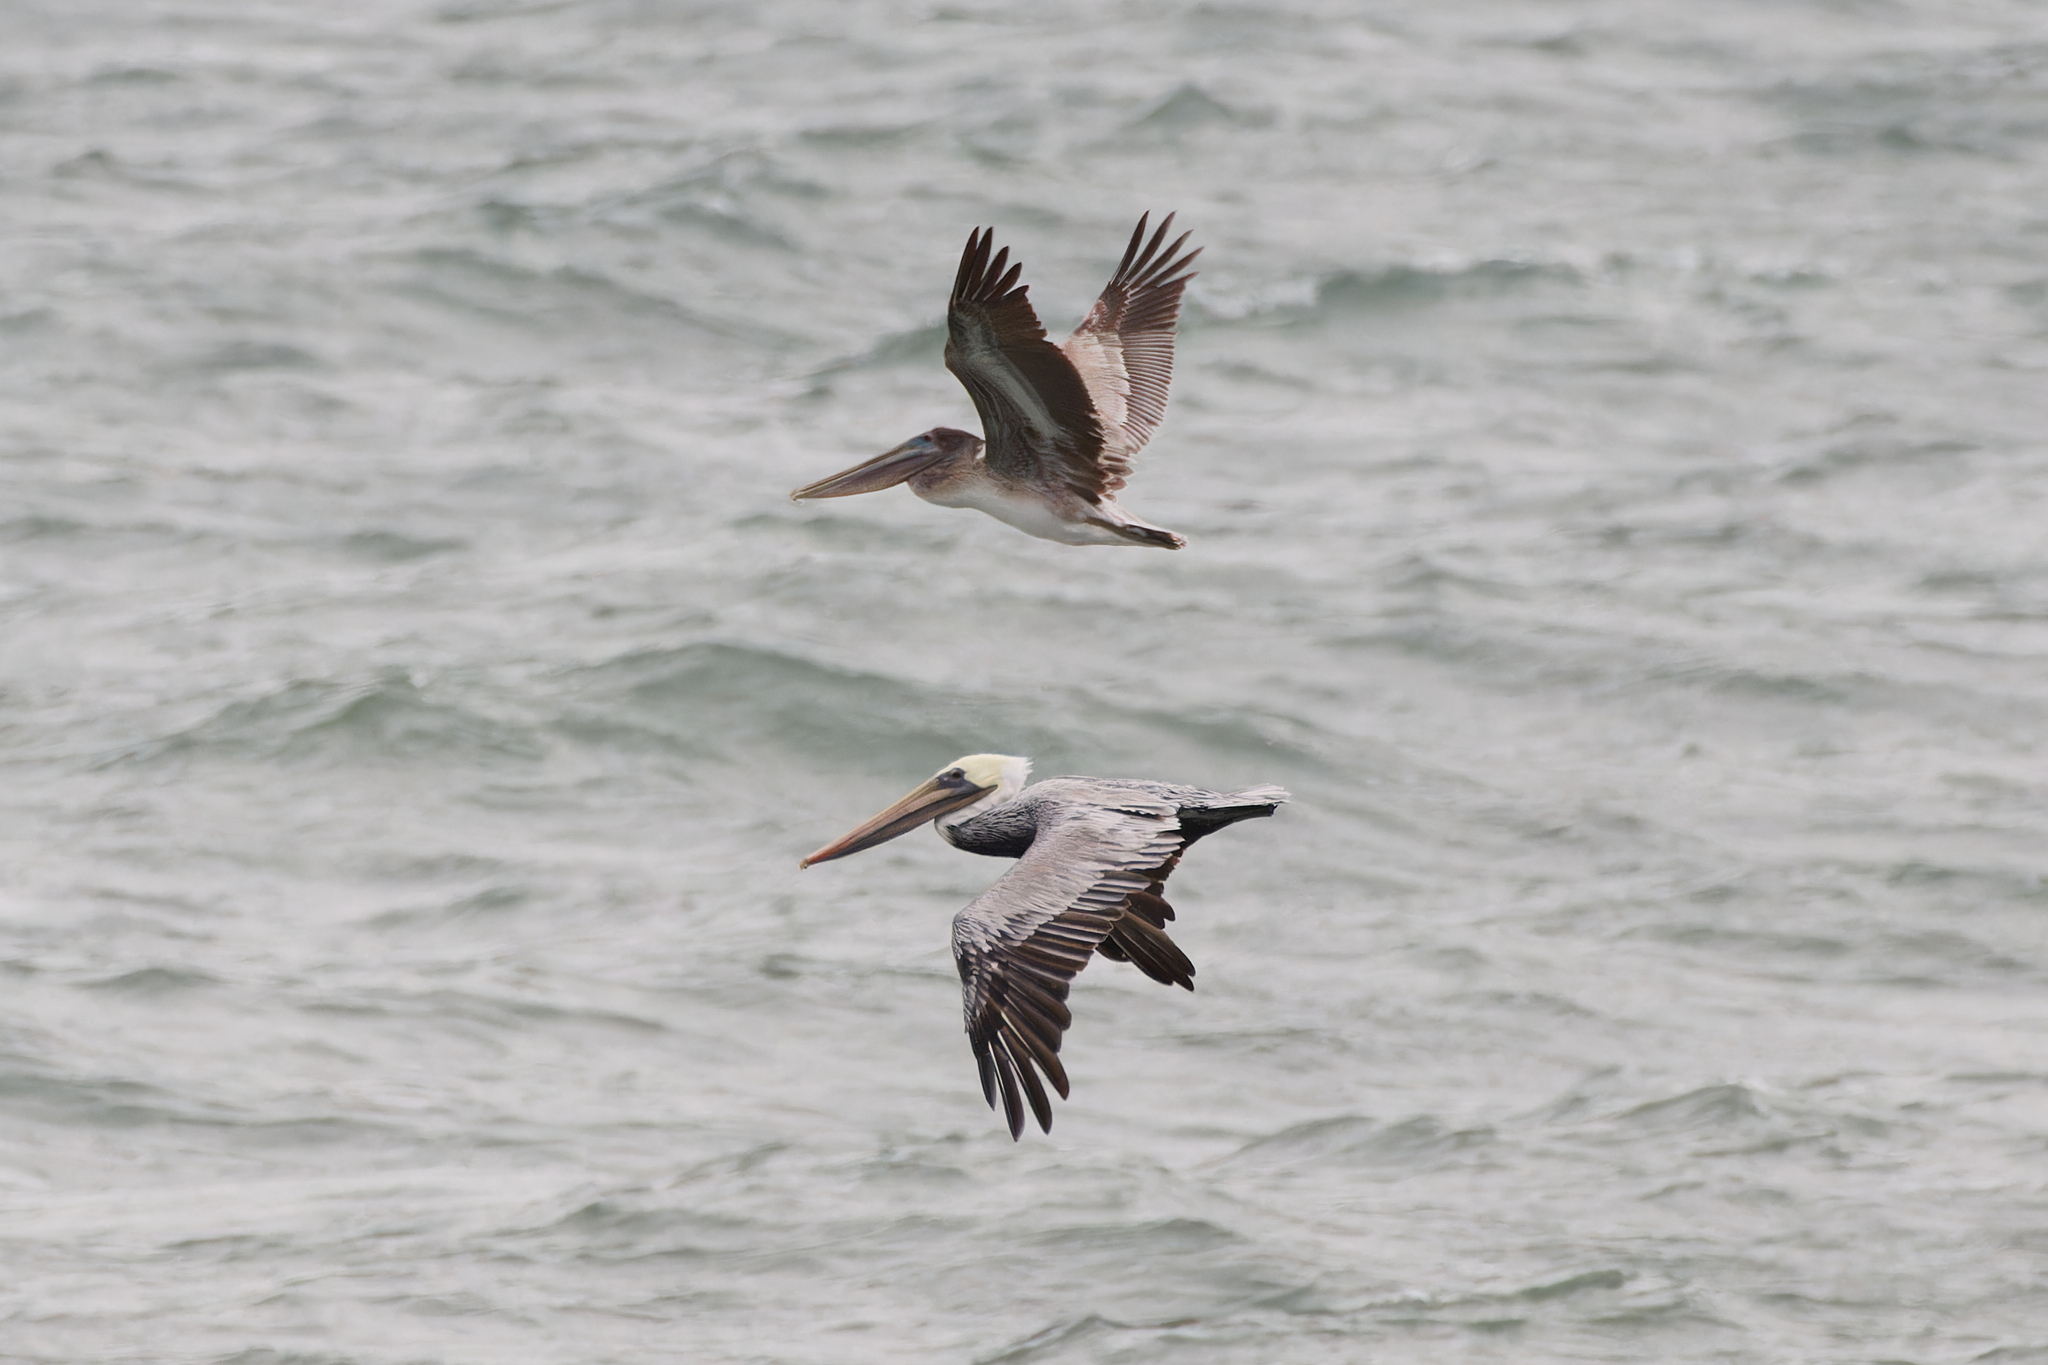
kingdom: Animalia
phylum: Chordata
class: Aves
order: Pelecaniformes
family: Pelecanidae
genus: Pelecanus
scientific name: Pelecanus occidentalis
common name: Brown pelican
